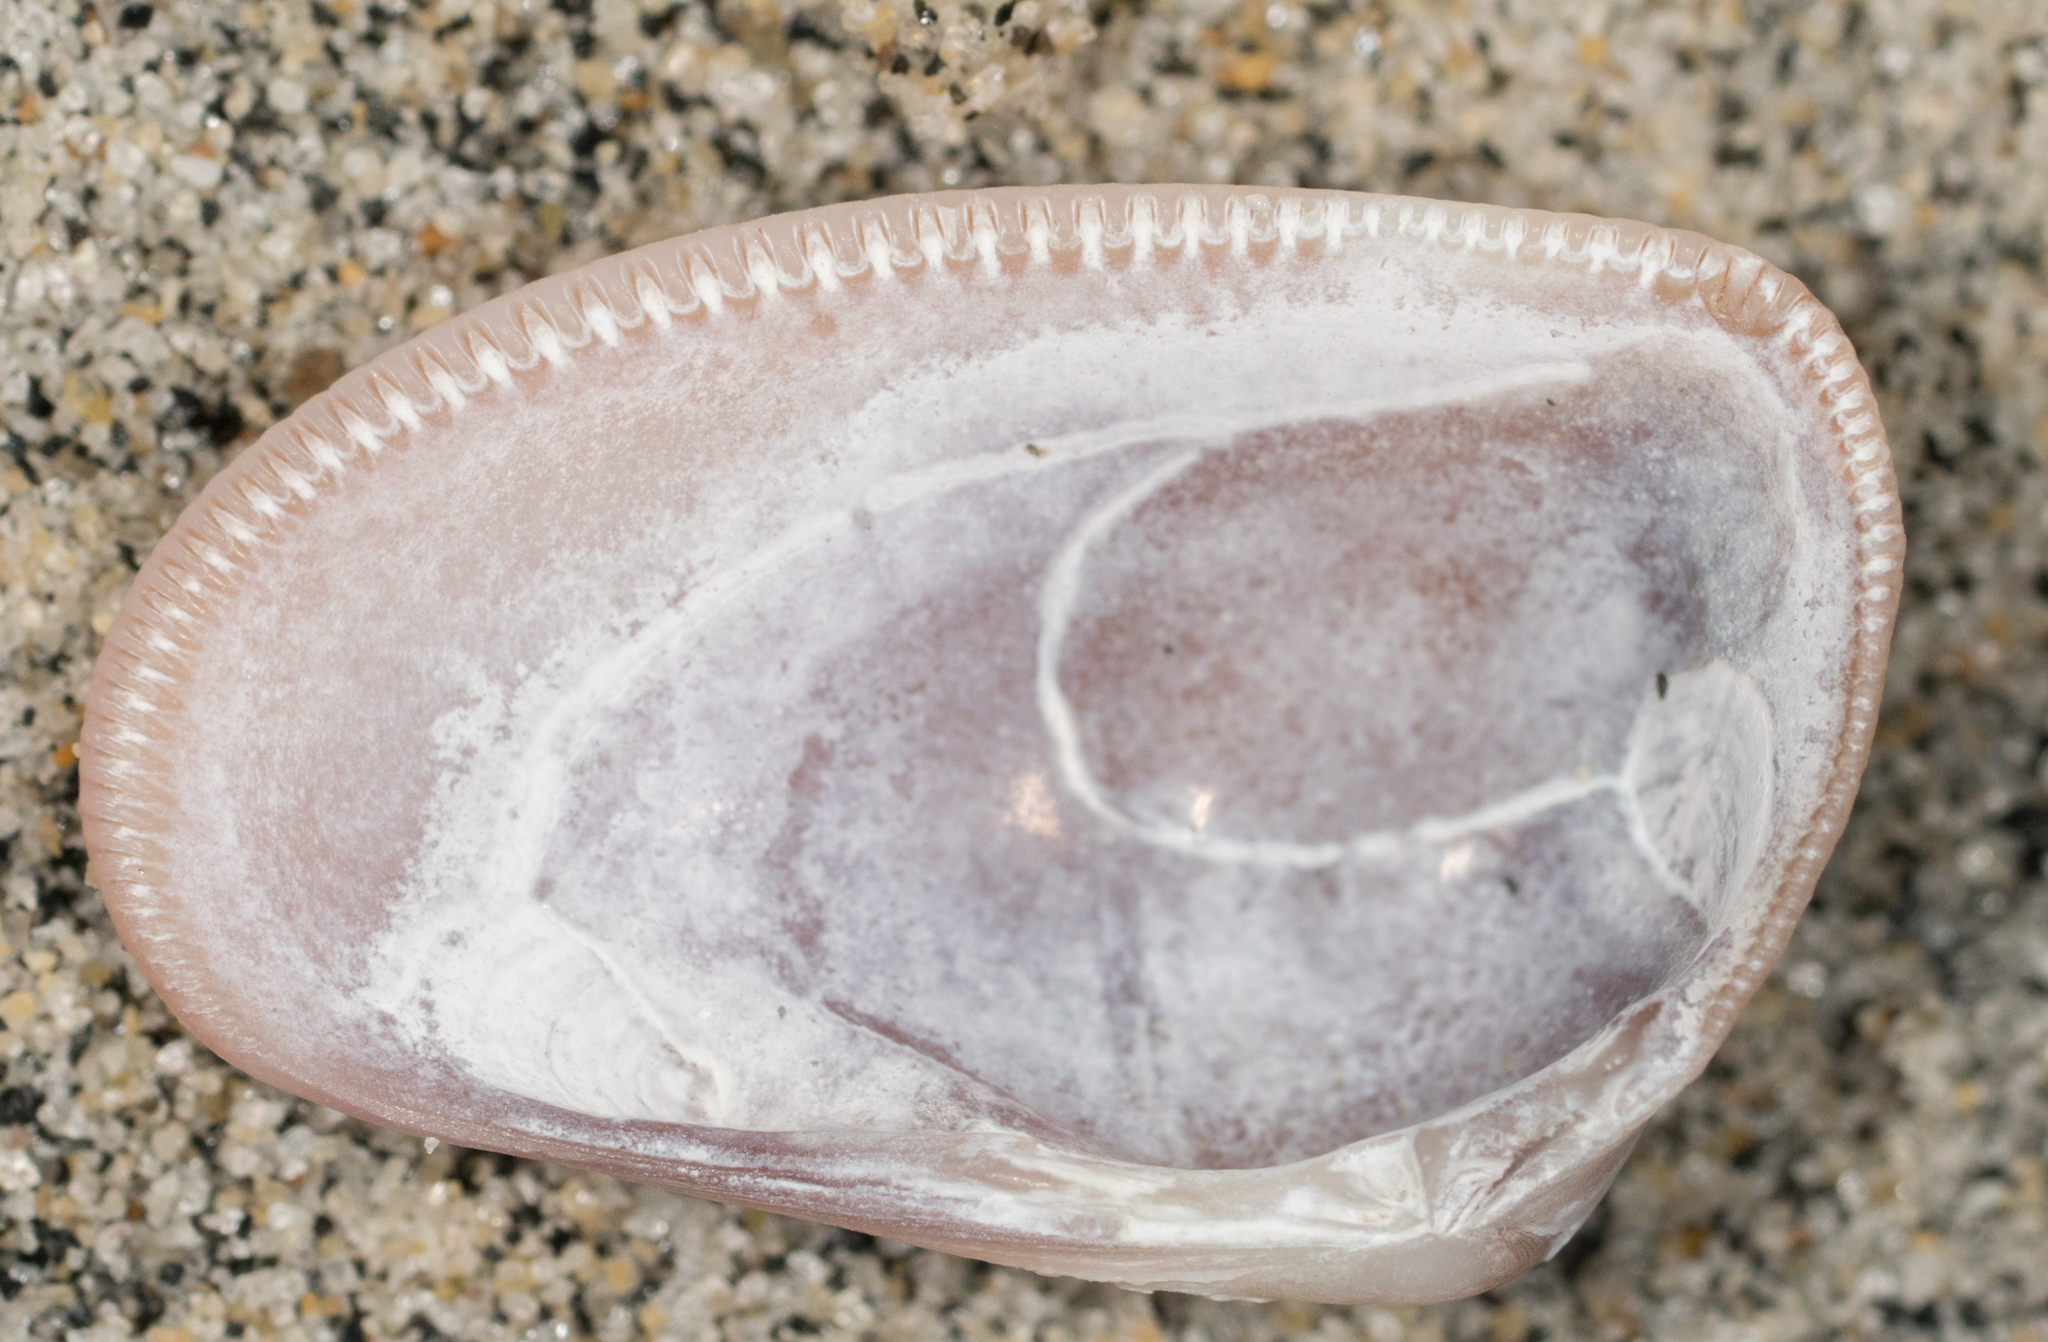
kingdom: Animalia
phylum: Mollusca
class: Bivalvia
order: Cardiida
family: Donacidae
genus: Donax
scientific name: Donax gouldii
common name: Gould beanclam
